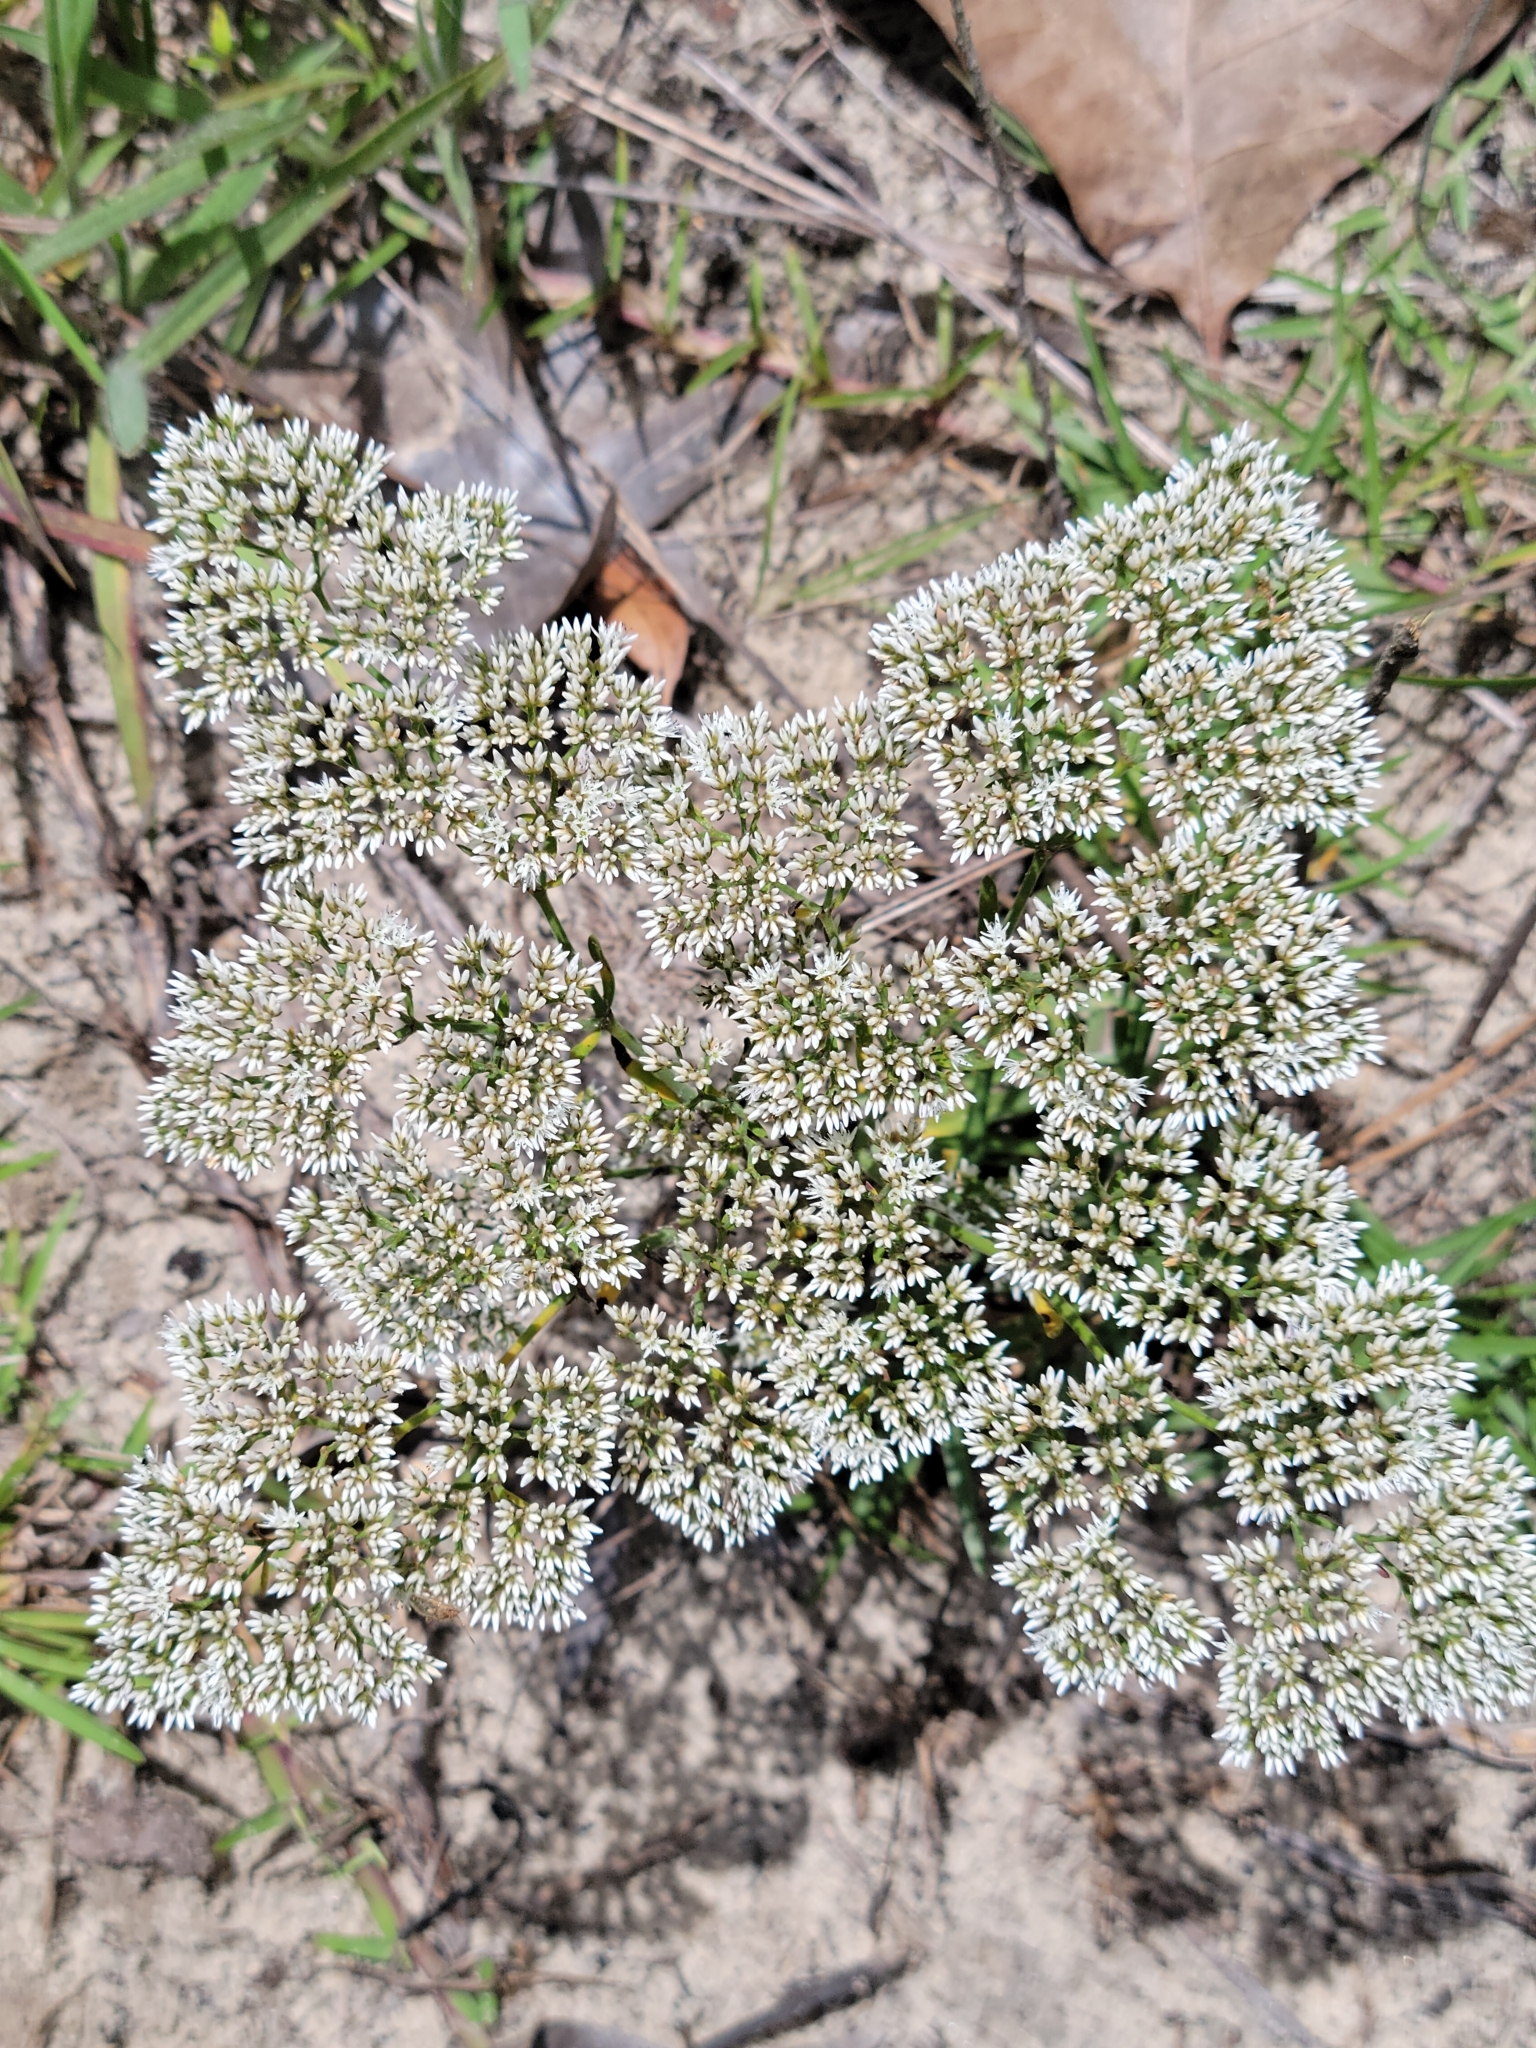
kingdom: Plantae
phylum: Tracheophyta
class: Magnoliopsida
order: Caryophyllales
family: Caryophyllaceae
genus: Paronychia
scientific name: Paronychia rugelii
